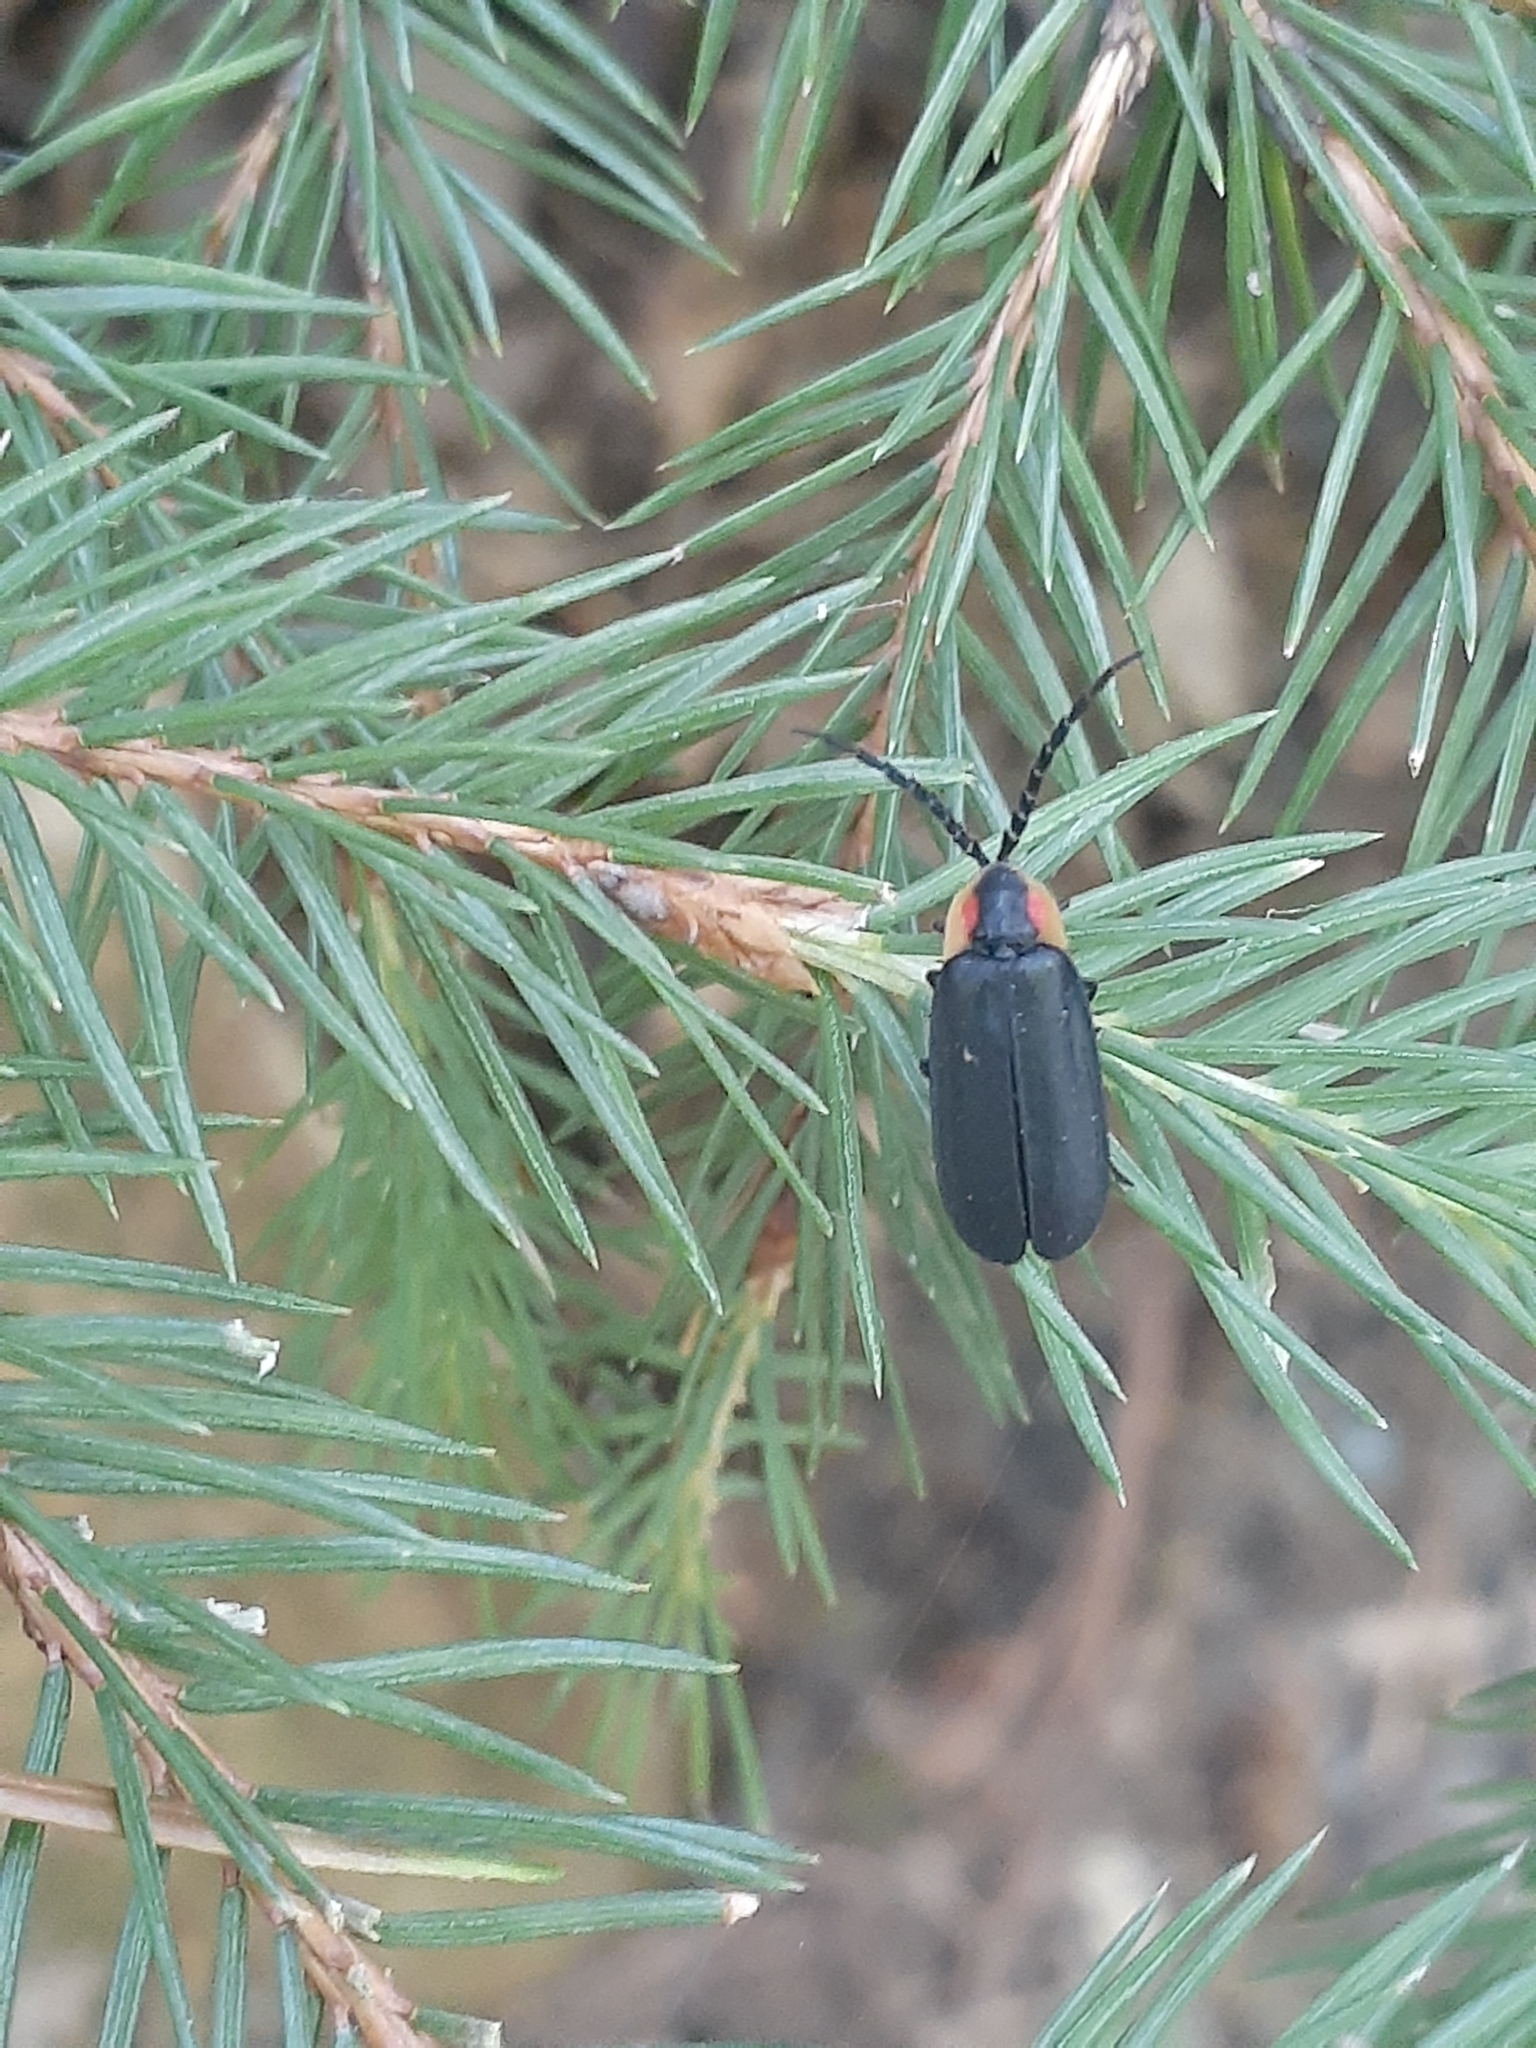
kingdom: Animalia
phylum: Arthropoda
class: Insecta
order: Coleoptera
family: Lampyridae
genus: Lucidota
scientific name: Lucidota atra
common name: Black firefly
